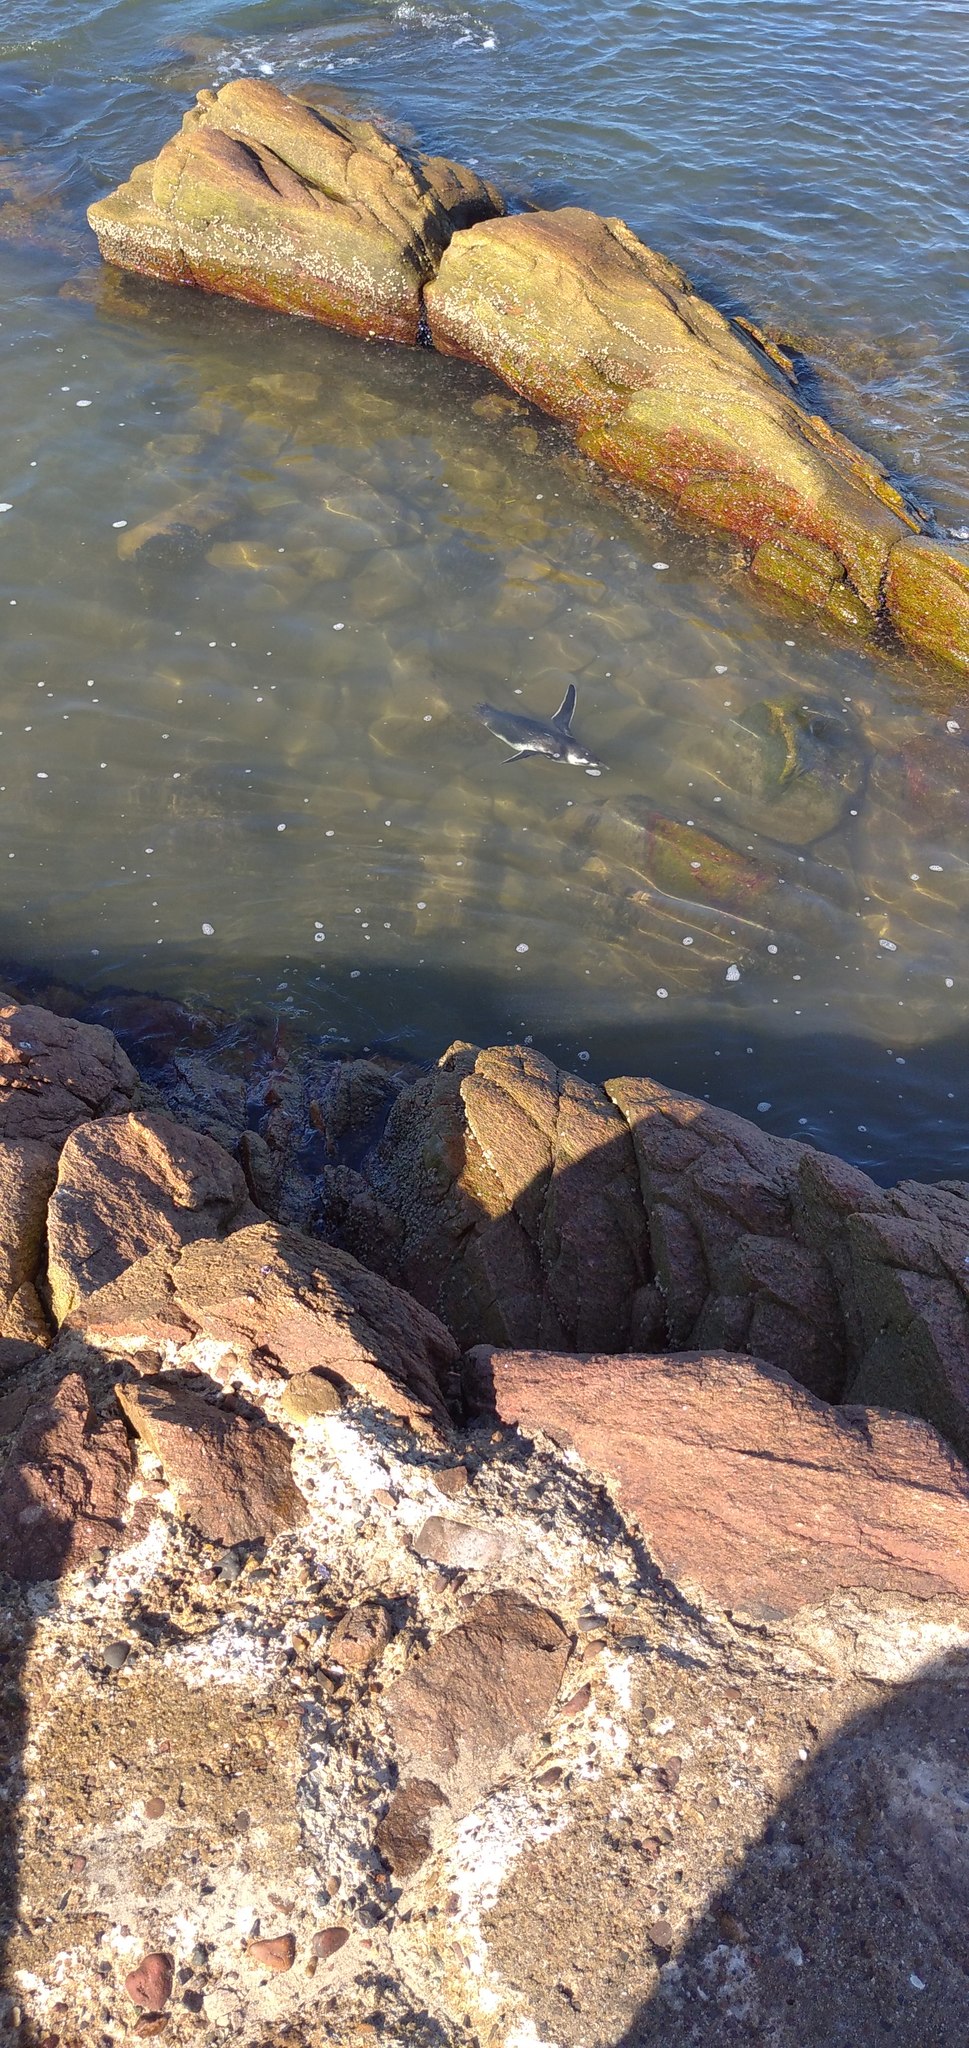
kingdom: Animalia
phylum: Chordata
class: Aves
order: Sphenisciformes
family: Spheniscidae
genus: Spheniscus
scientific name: Spheniscus magellanicus
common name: Magellanic penguin
